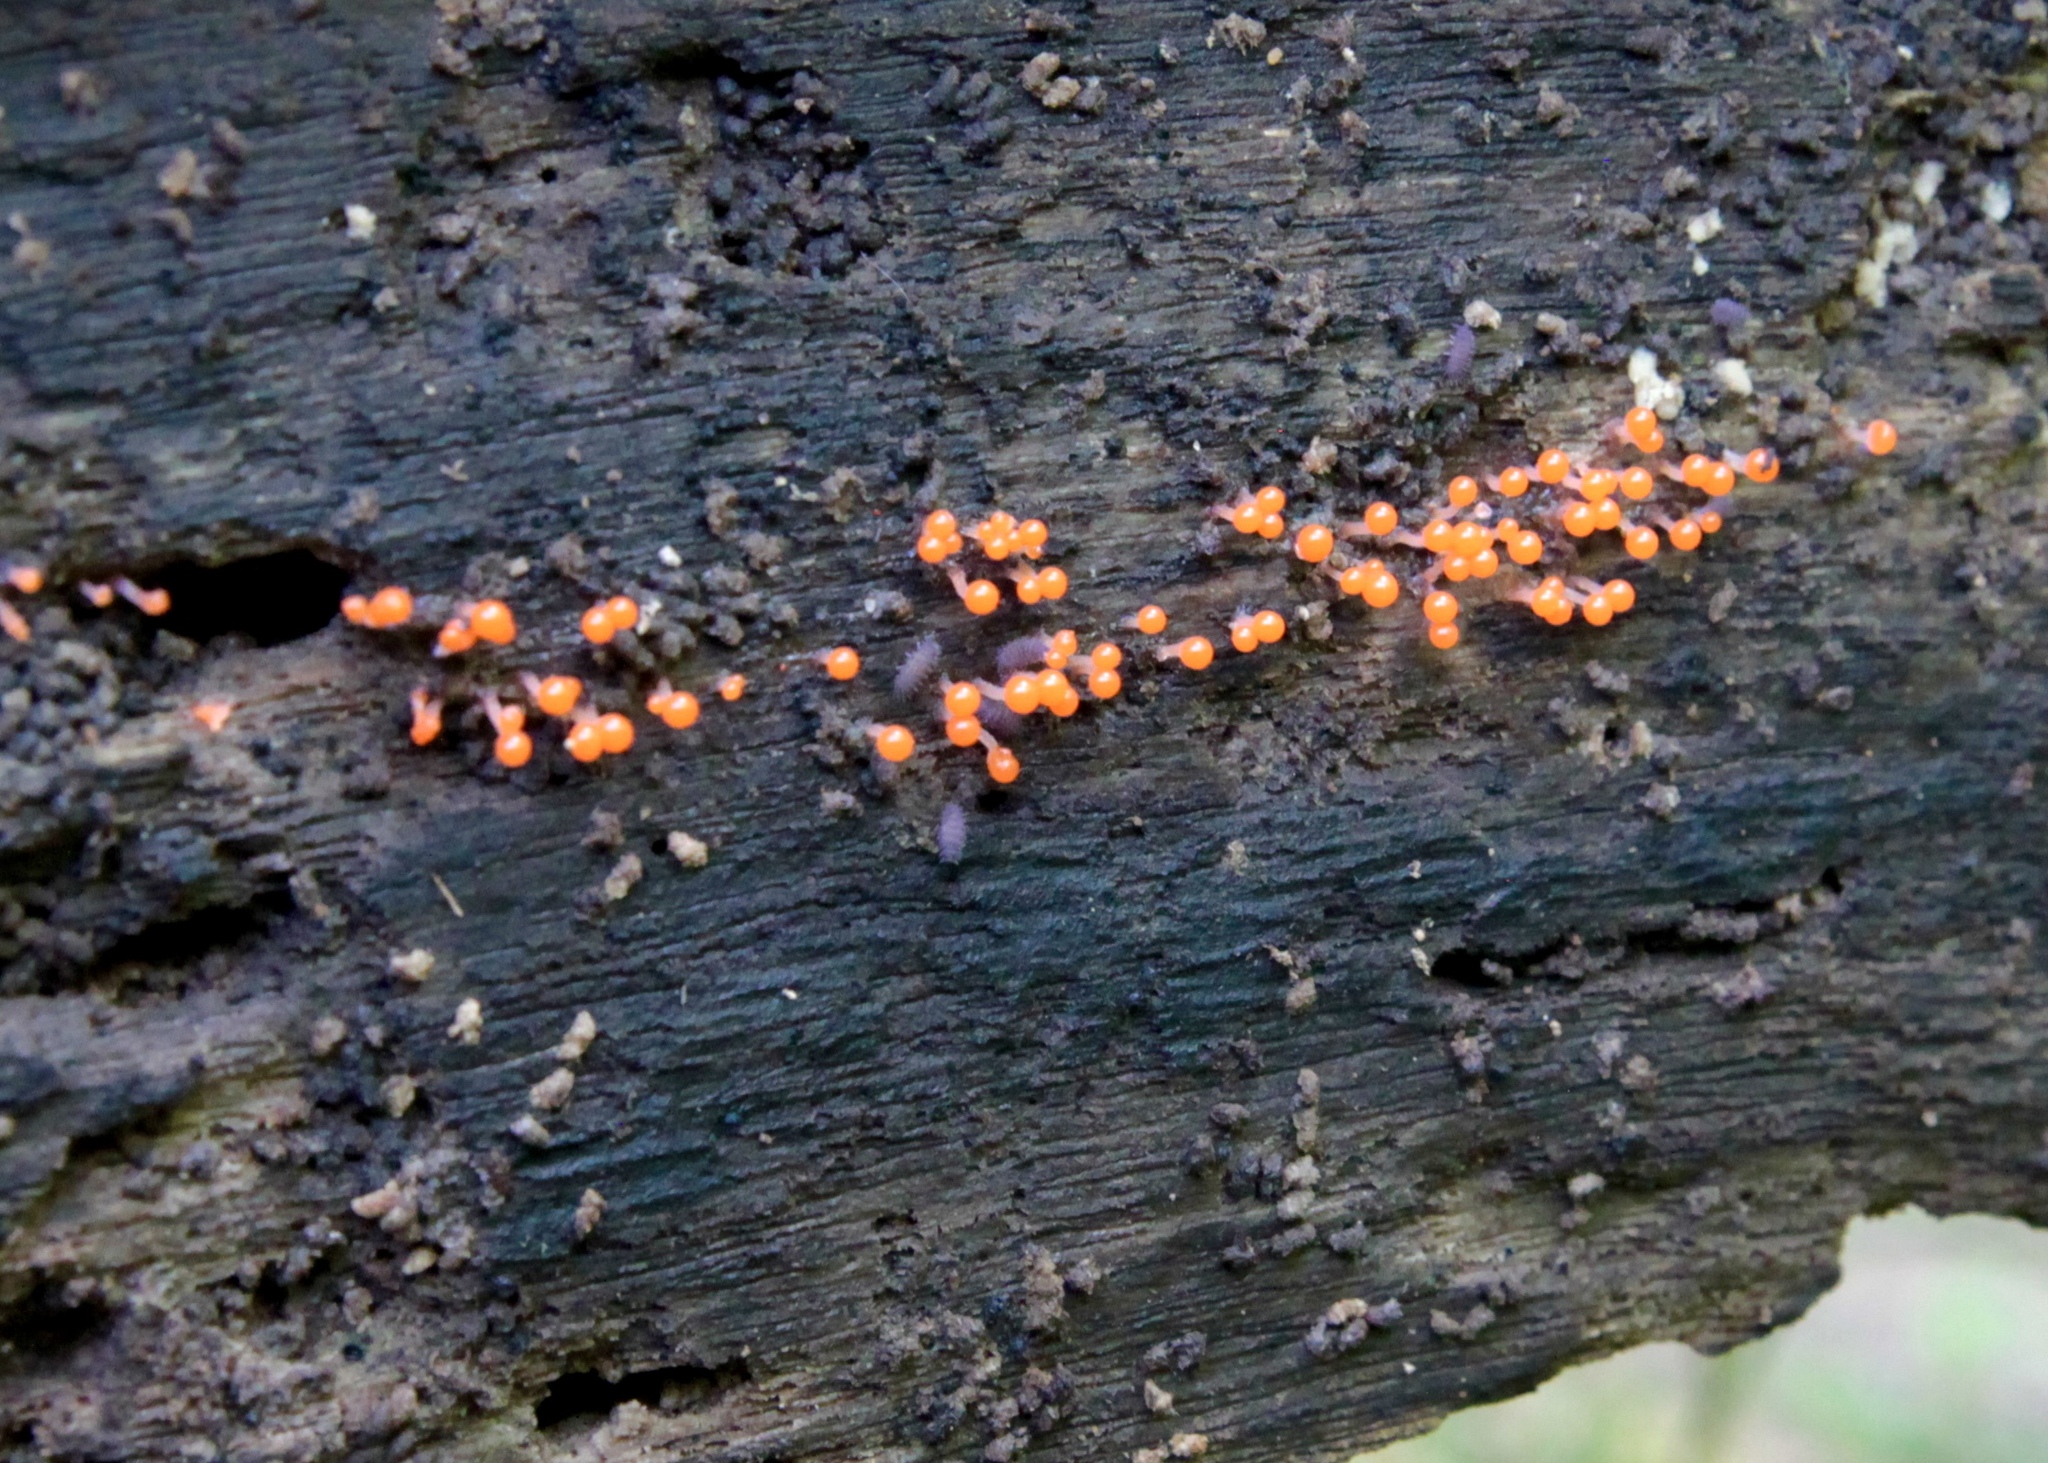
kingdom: Protozoa
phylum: Mycetozoa
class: Myxomycetes
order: Trichiales
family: Arcyriaceae
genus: Hemitrichia
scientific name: Hemitrichia calyculata
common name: Push pin slime mold
